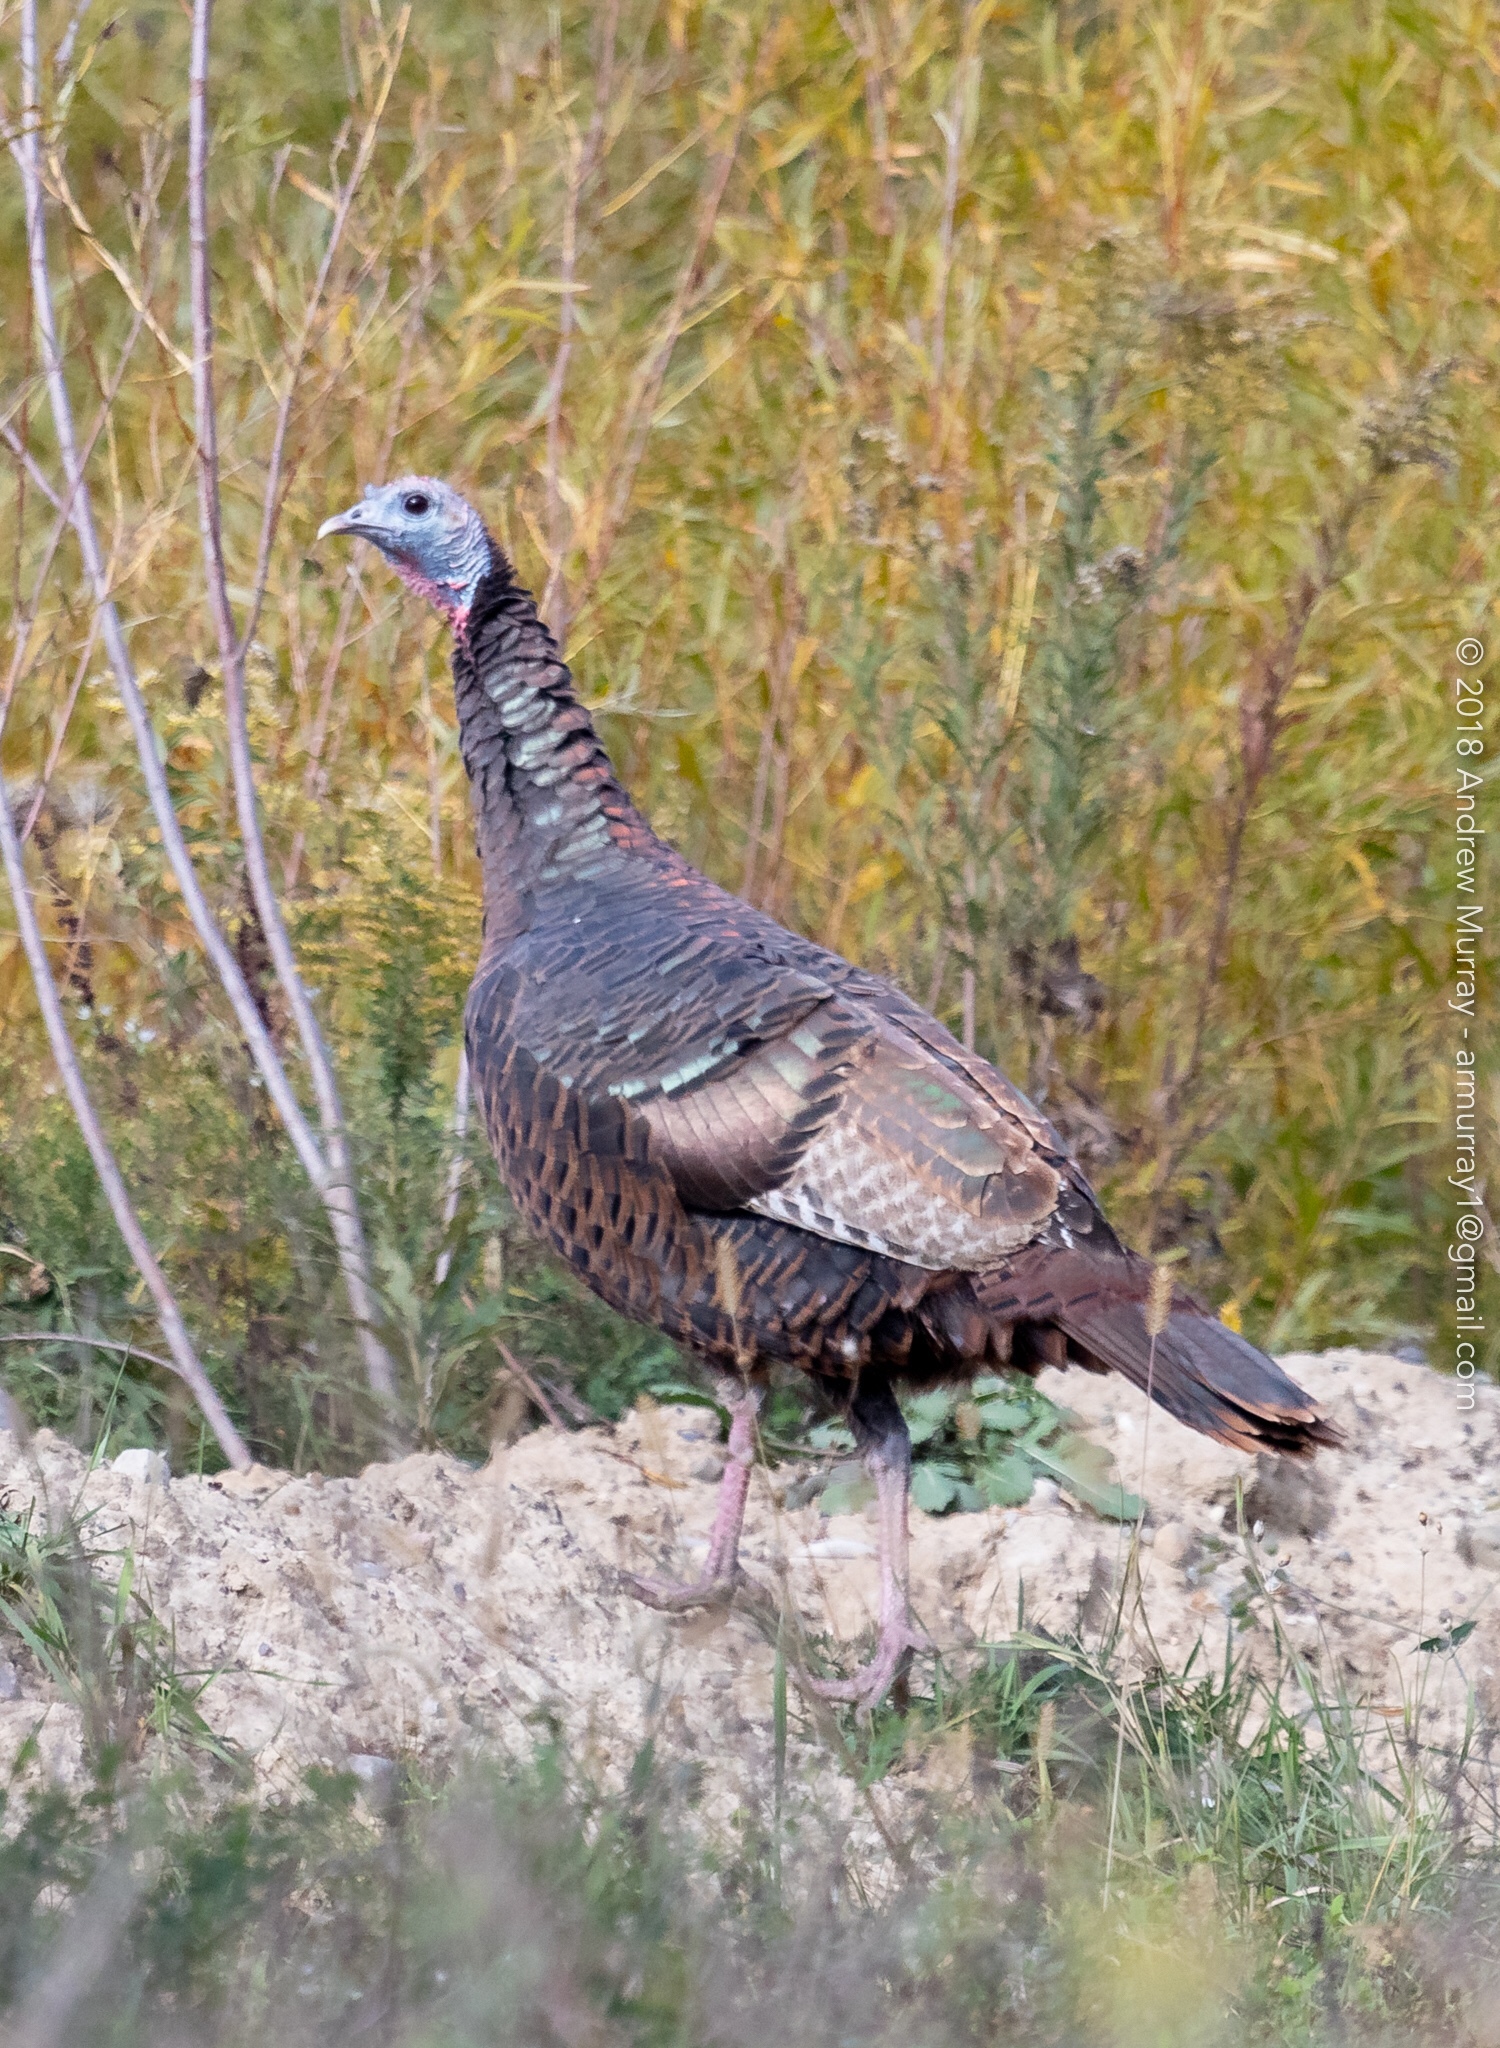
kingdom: Animalia
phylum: Chordata
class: Aves
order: Galliformes
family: Phasianidae
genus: Meleagris
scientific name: Meleagris gallopavo
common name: Wild turkey
